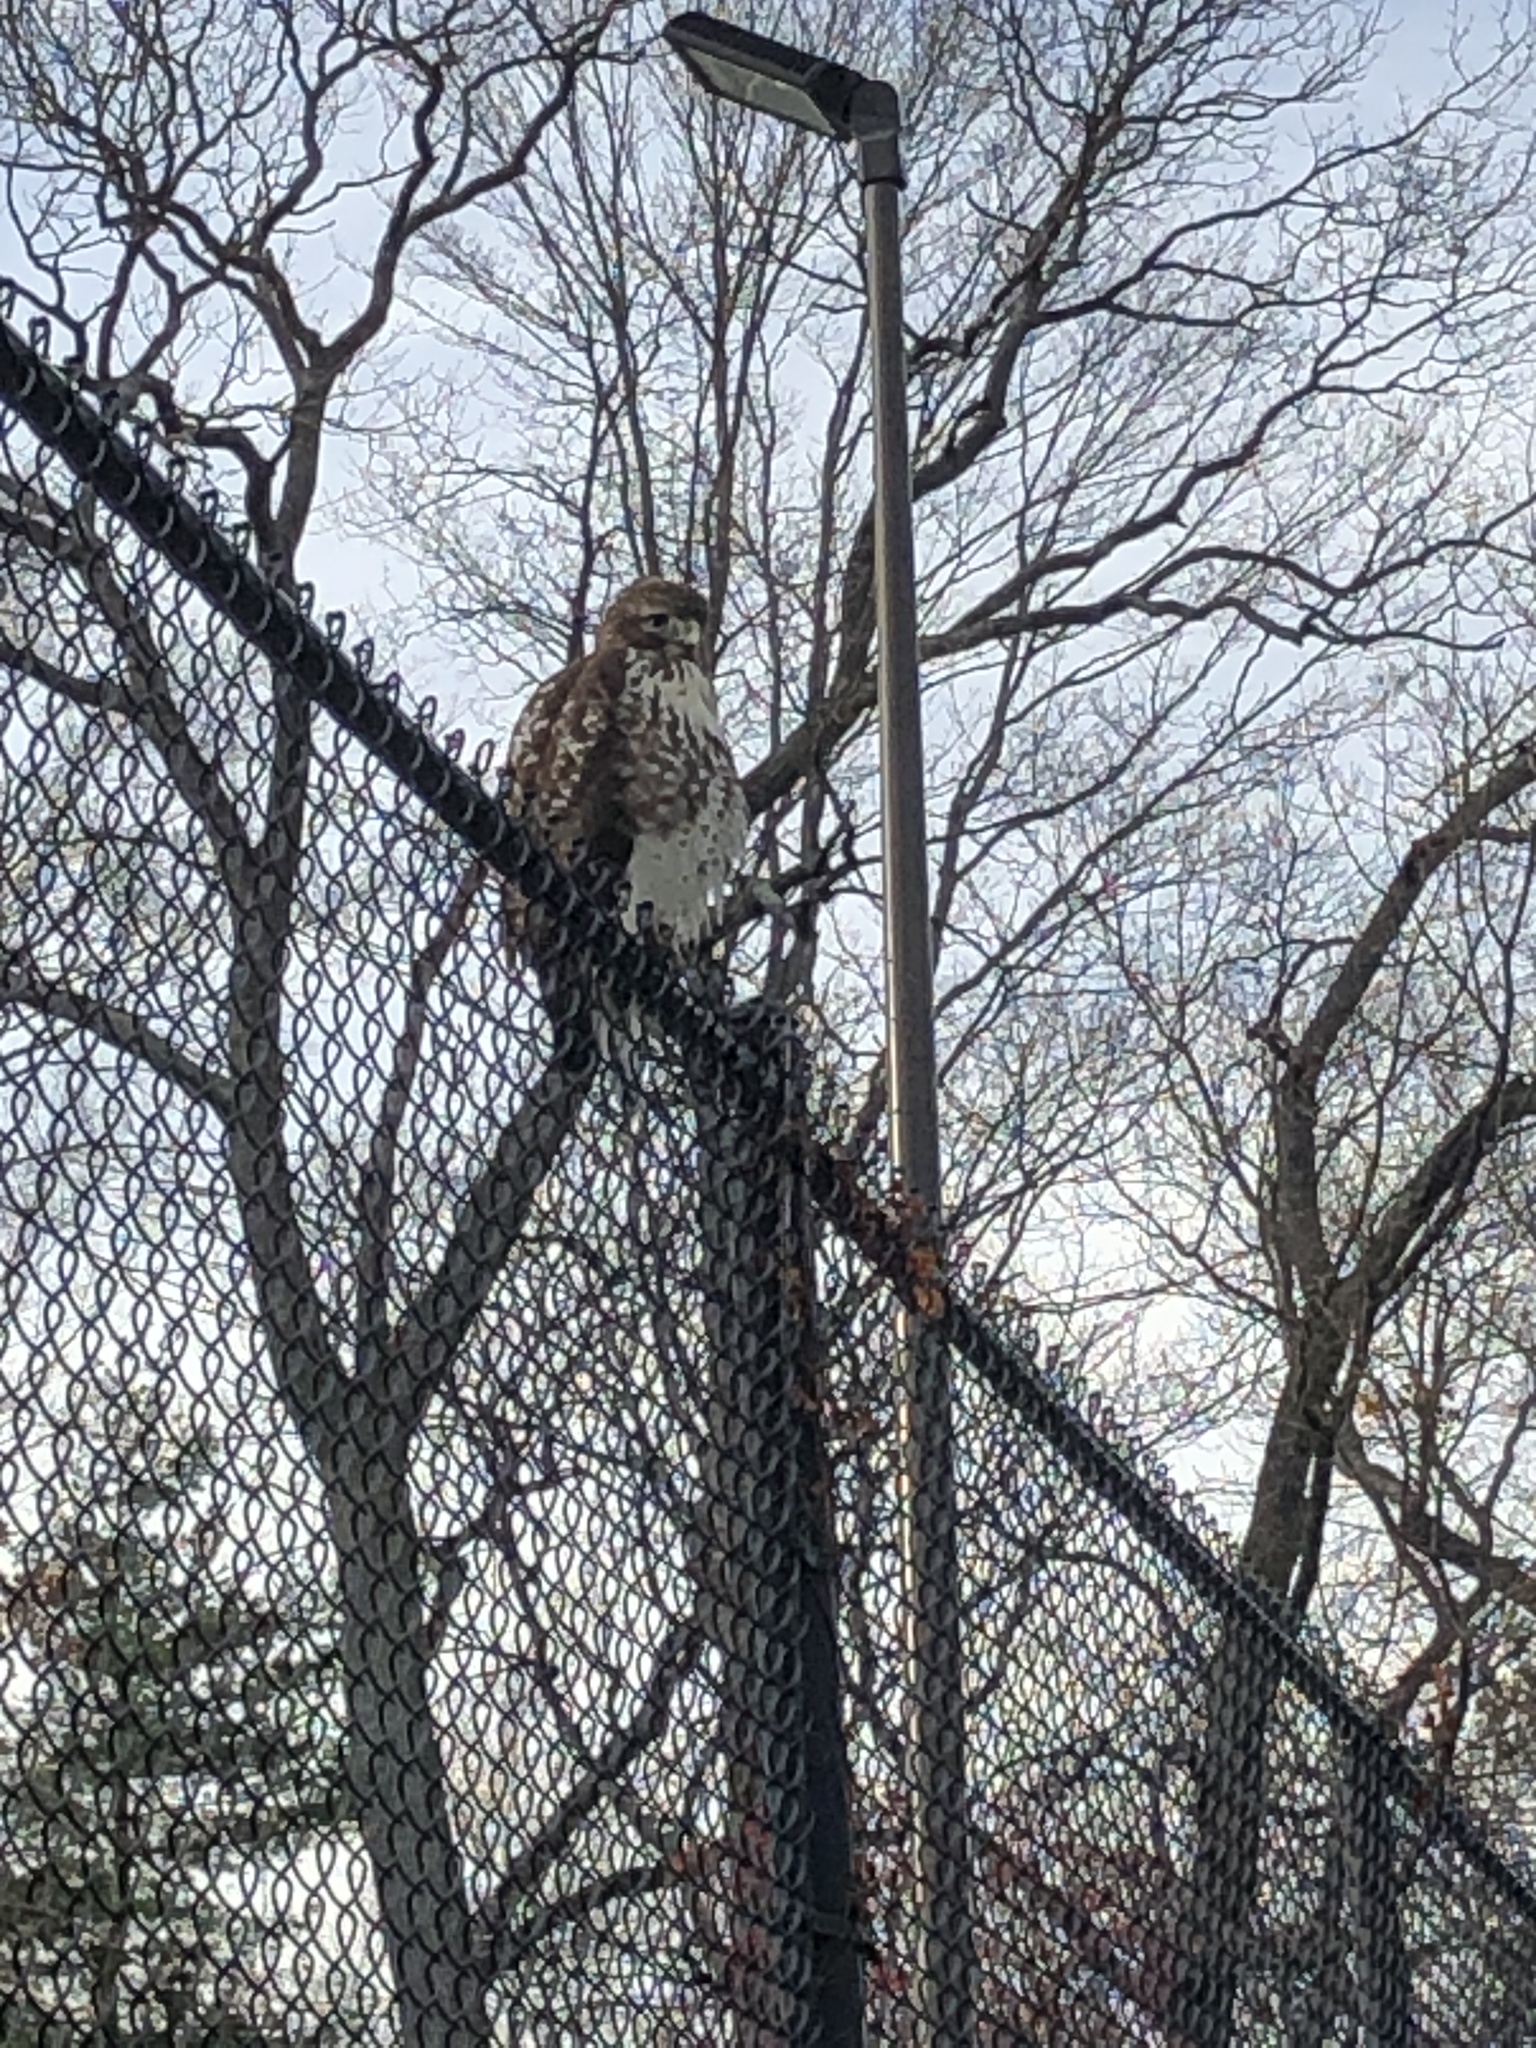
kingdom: Animalia
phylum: Chordata
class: Aves
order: Accipitriformes
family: Accipitridae
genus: Buteo
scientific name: Buteo jamaicensis
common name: Red-tailed hawk
